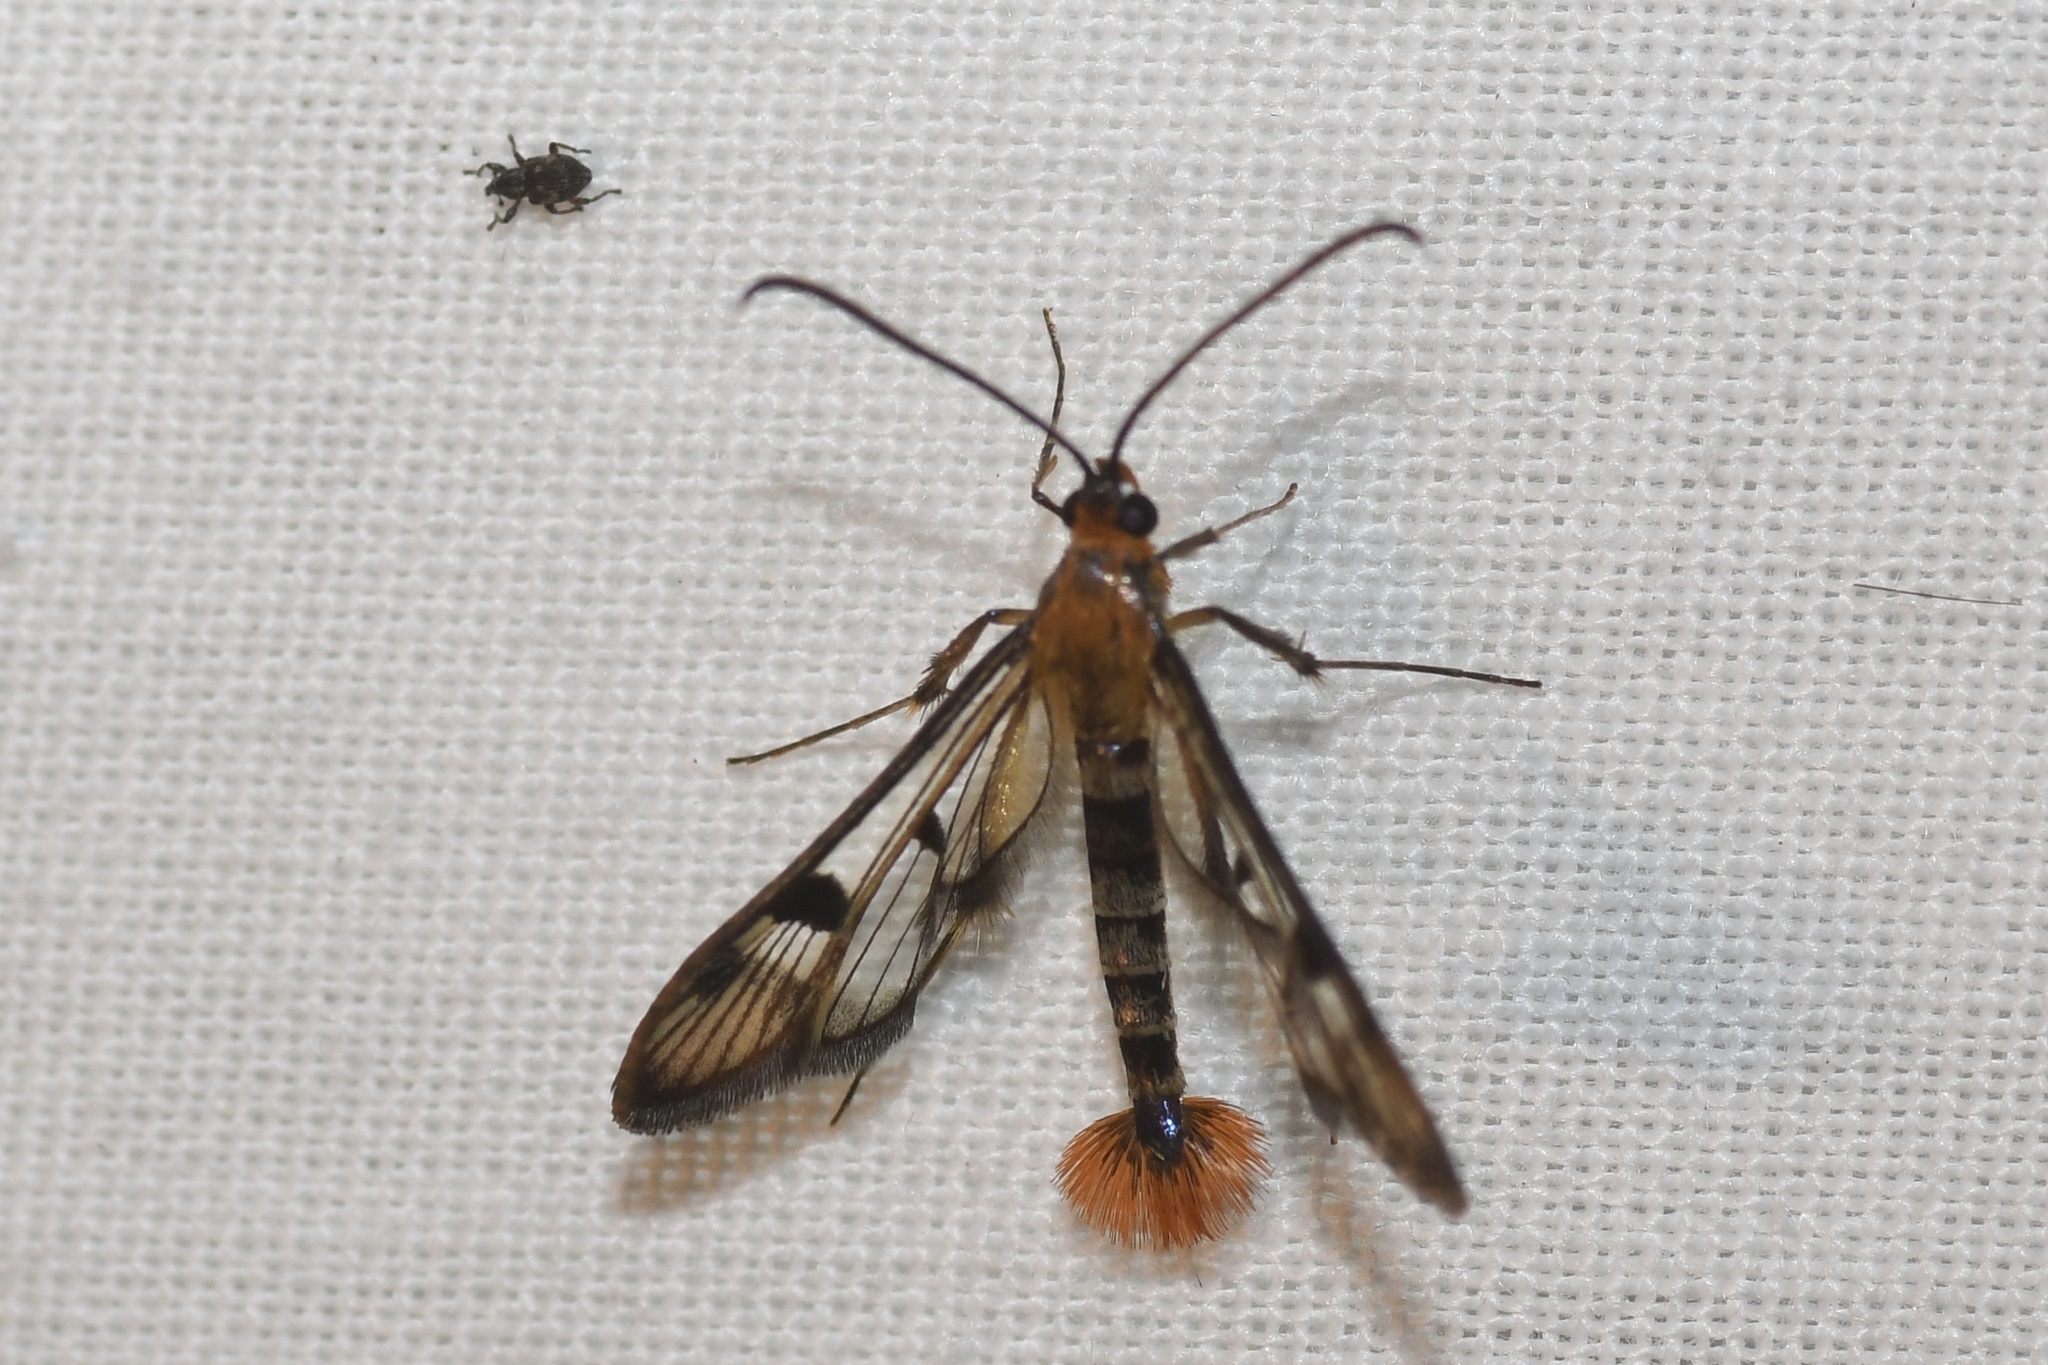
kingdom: Animalia
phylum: Arthropoda
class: Insecta
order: Lepidoptera
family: Sesiidae
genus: Synanthedon
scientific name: Synanthedon acerni
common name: Maple callus borer moth
